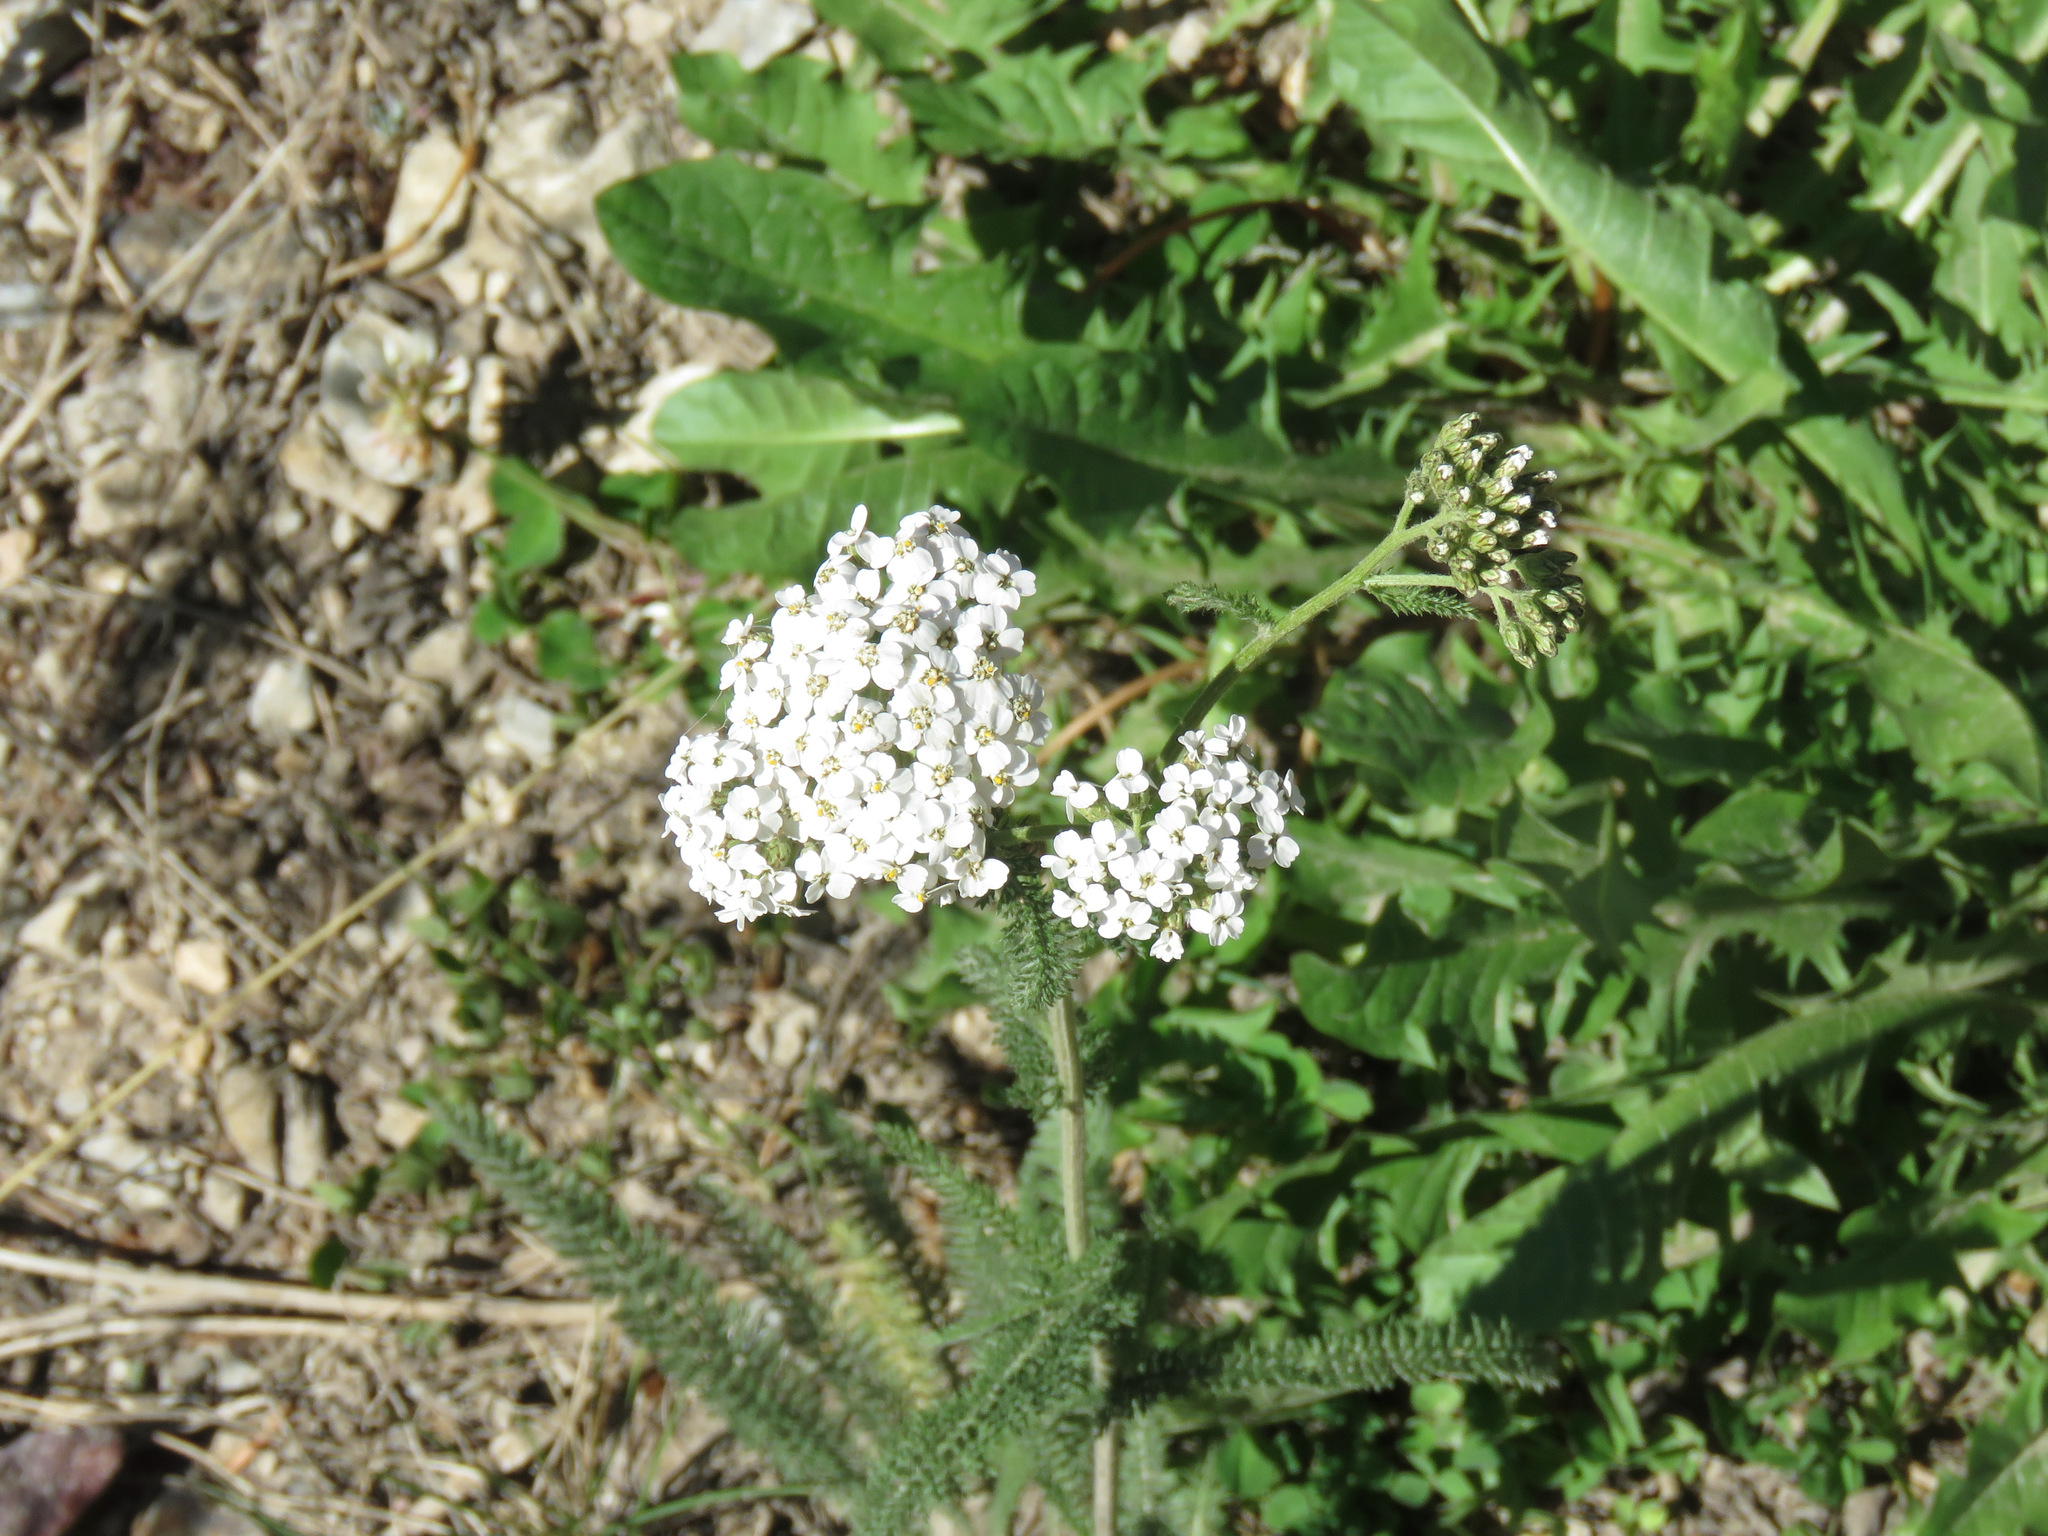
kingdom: Plantae
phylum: Tracheophyta
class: Magnoliopsida
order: Asterales
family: Asteraceae
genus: Achillea
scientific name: Achillea millefolium
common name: Yarrow
